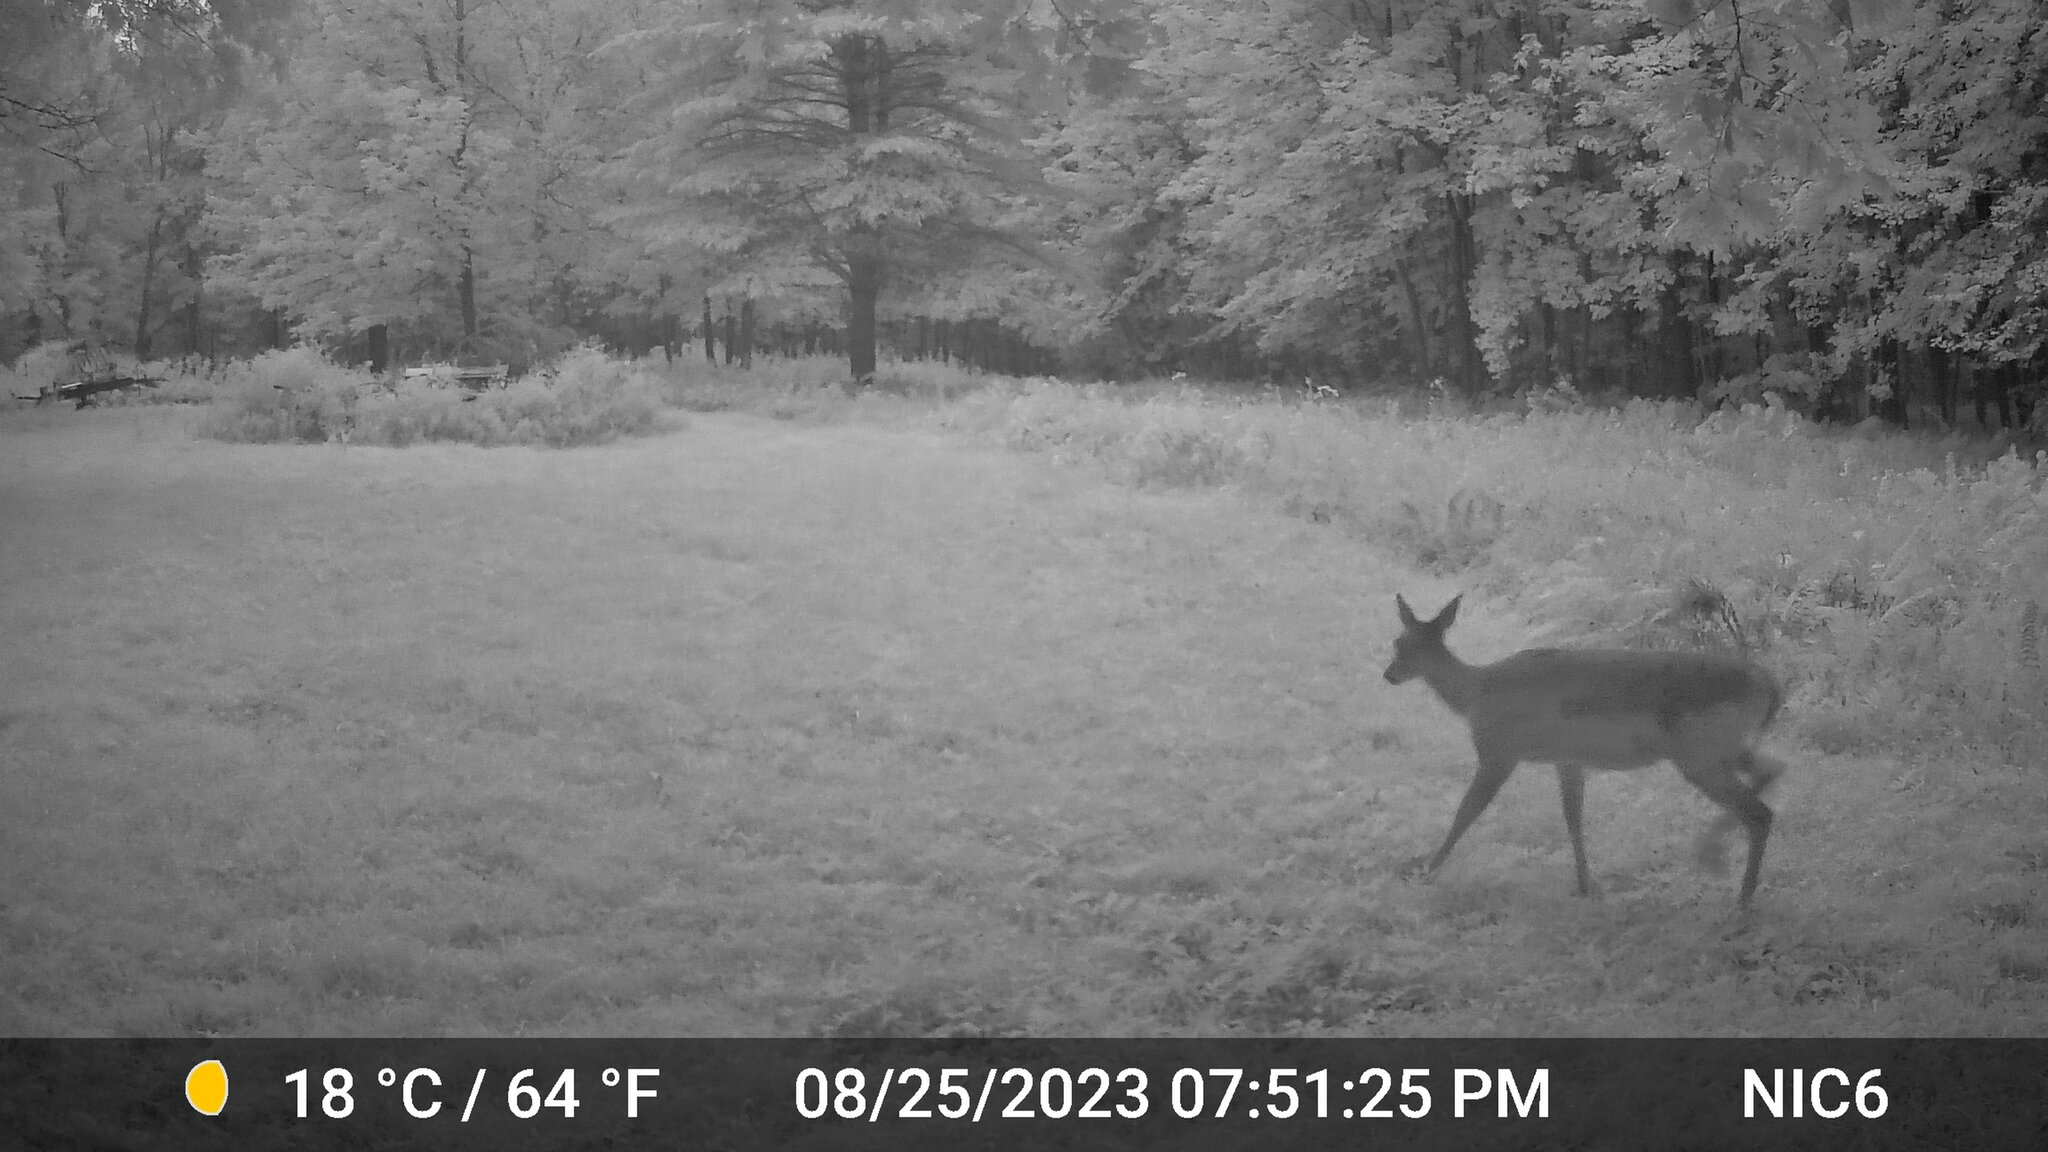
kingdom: Animalia
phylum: Chordata
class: Mammalia
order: Artiodactyla
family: Cervidae
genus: Odocoileus
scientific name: Odocoileus virginianus
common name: White-tailed deer
